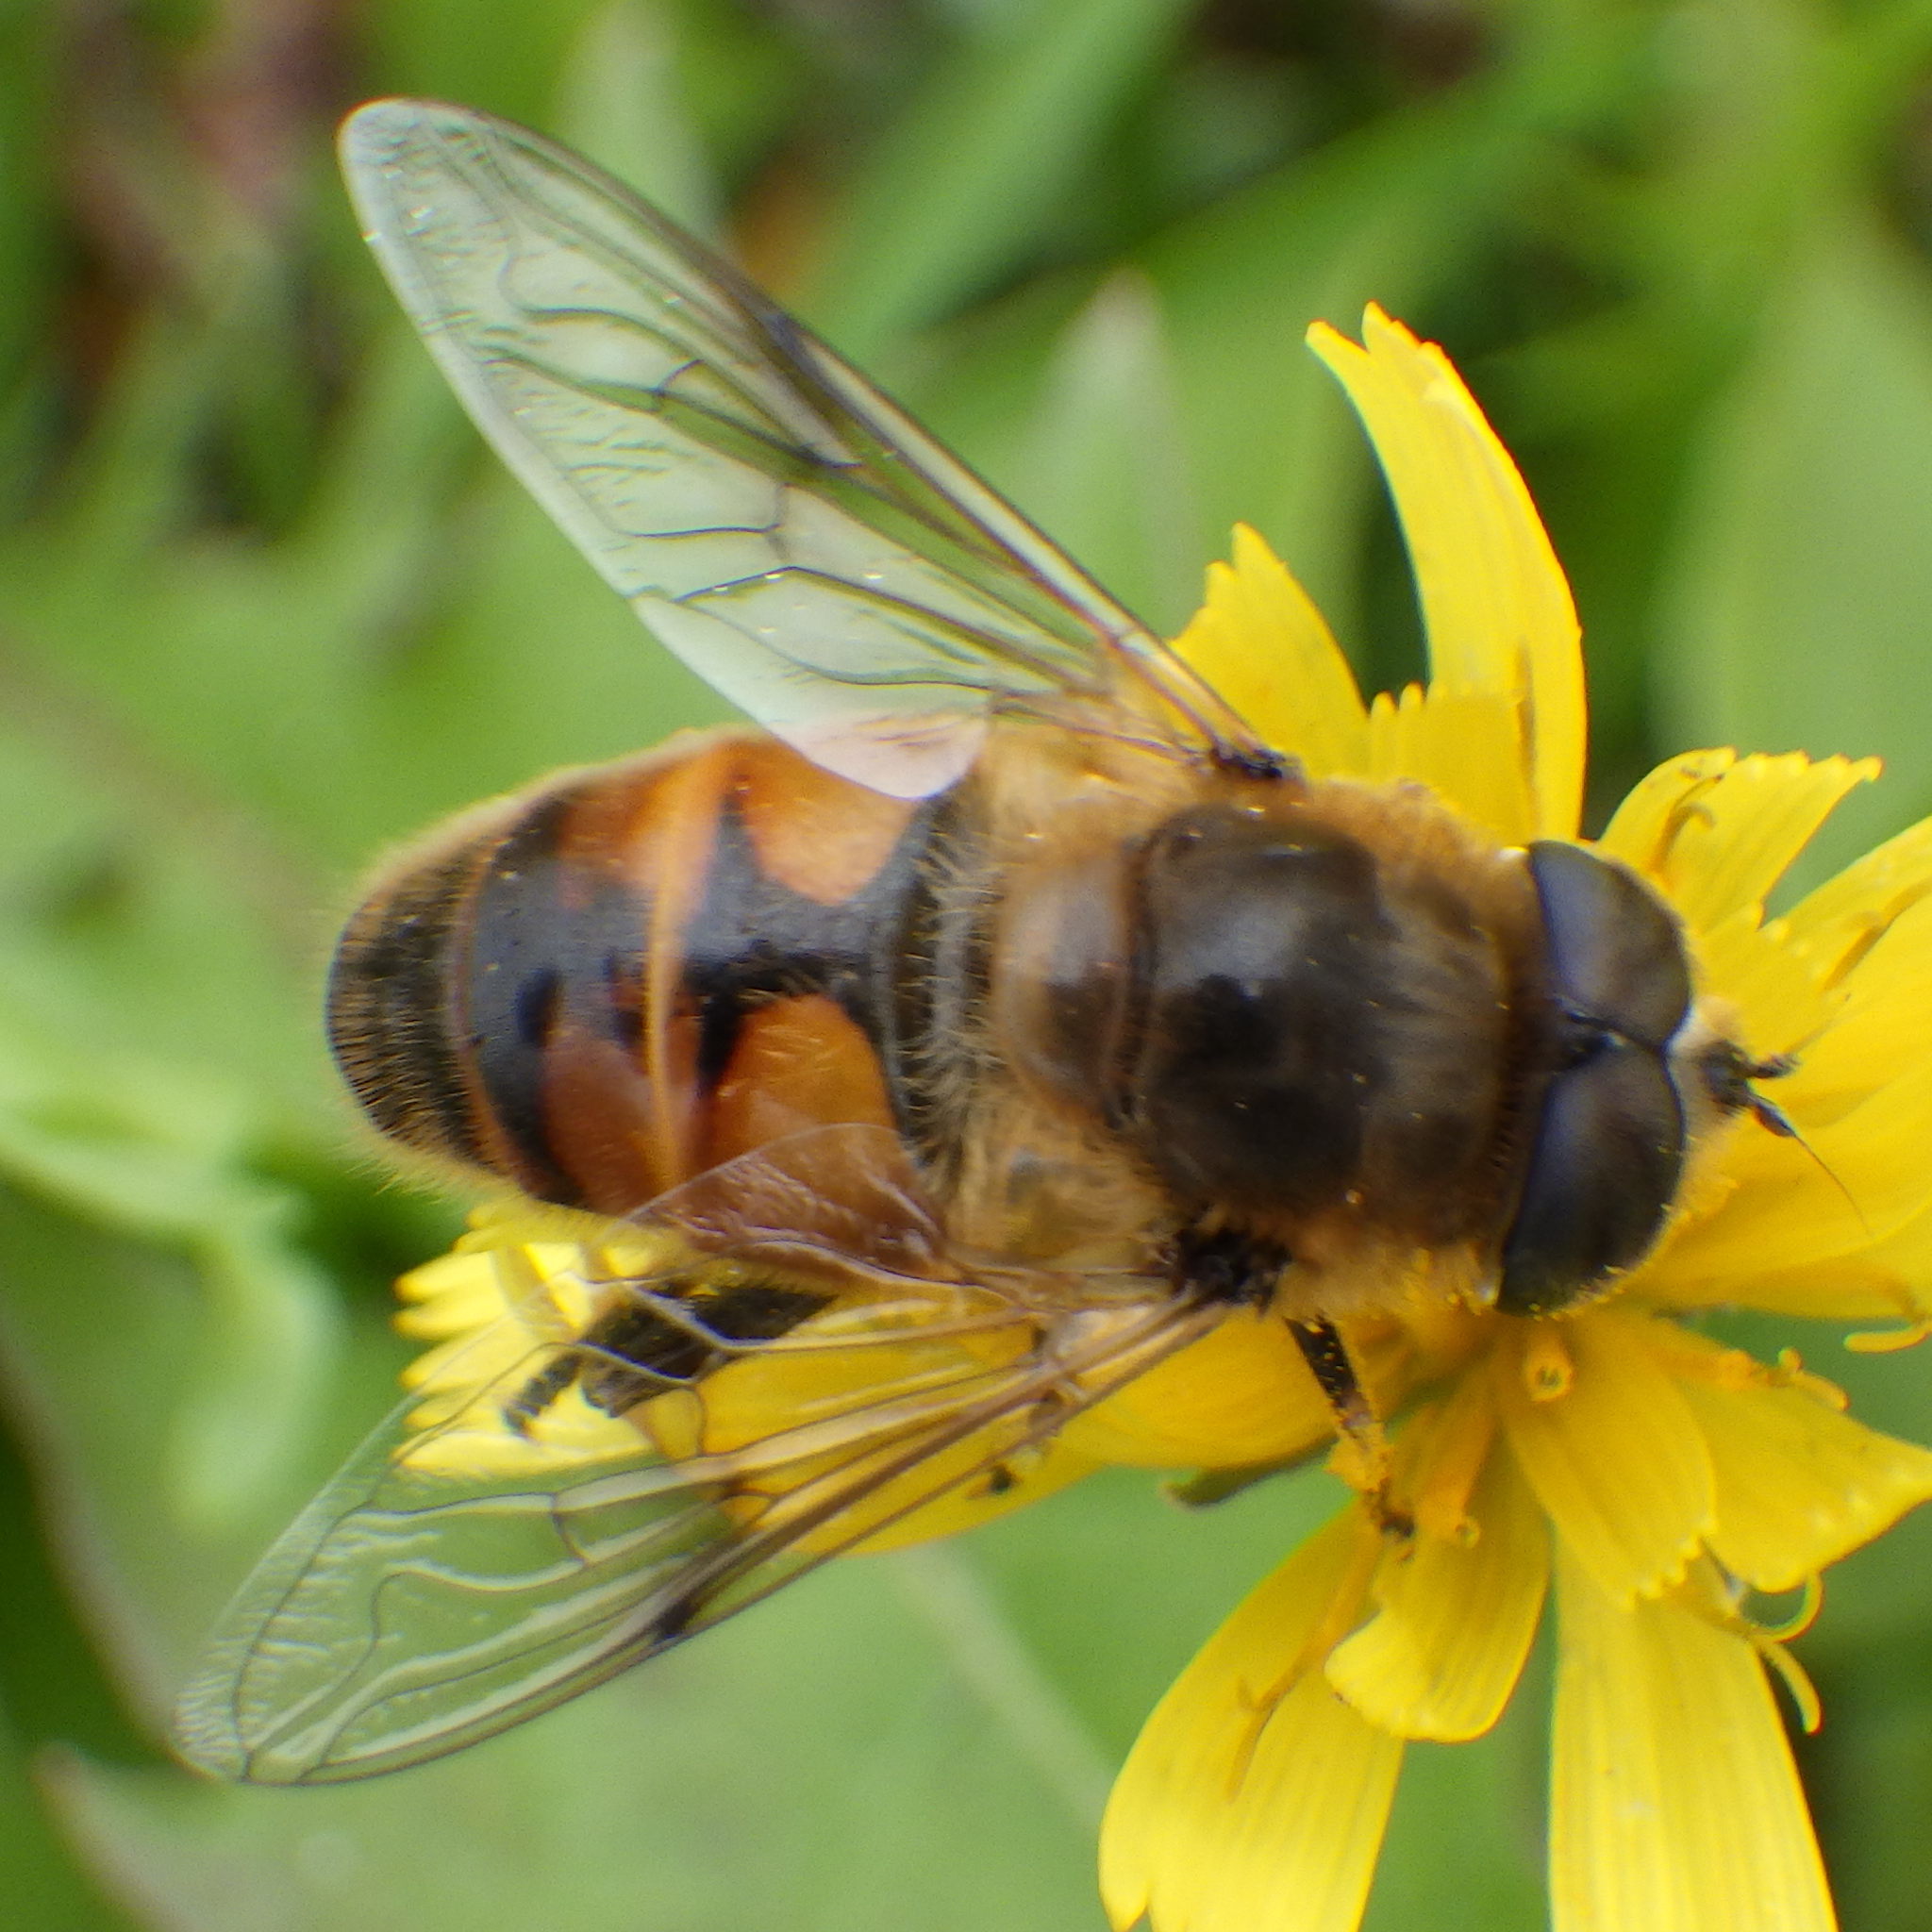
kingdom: Animalia
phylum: Arthropoda
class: Insecta
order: Diptera
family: Syrphidae
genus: Eristalis
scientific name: Eristalis tenax
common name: Drone fly
